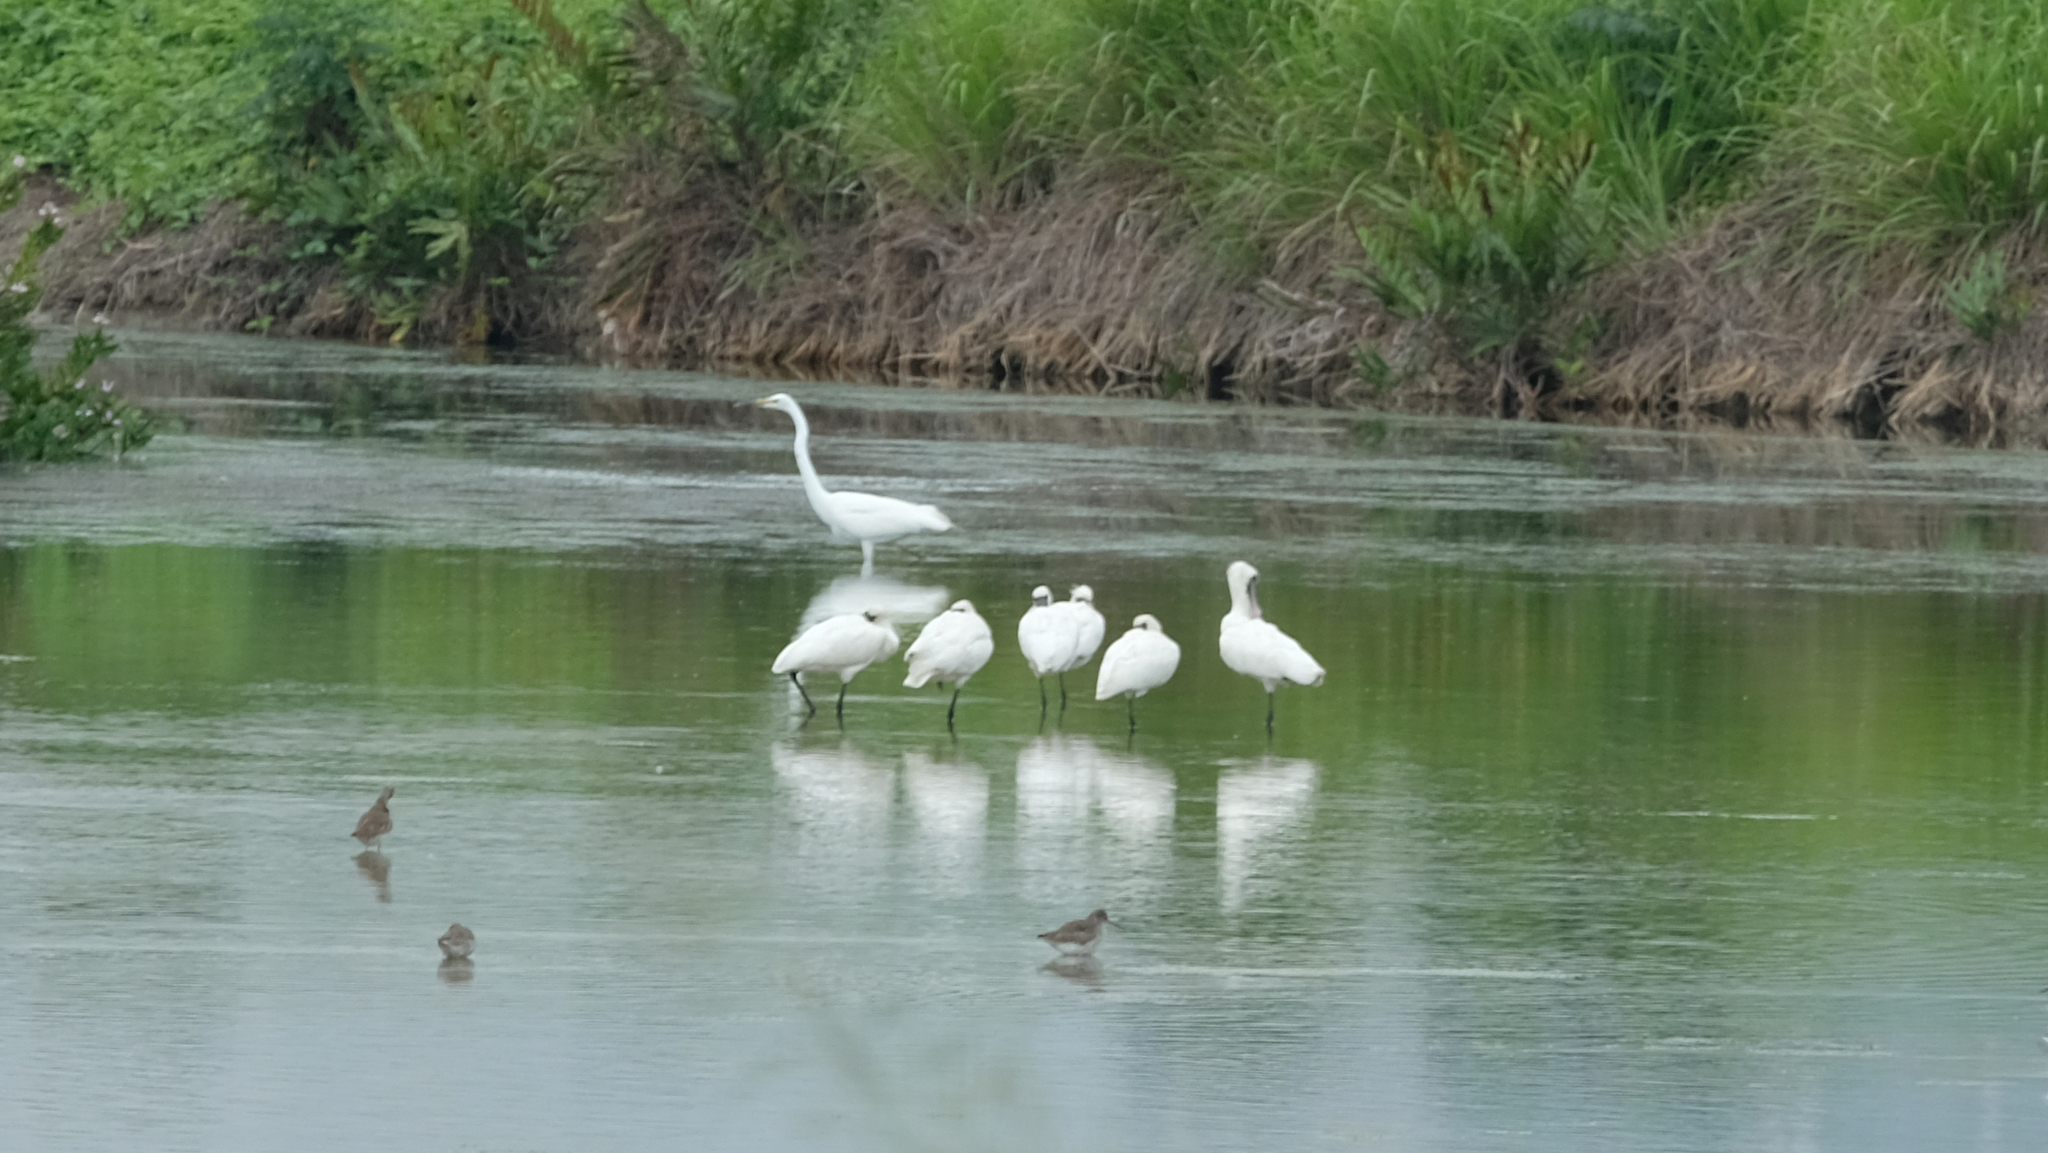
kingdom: Animalia
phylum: Chordata
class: Aves
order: Pelecaniformes
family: Threskiornithidae
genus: Platalea
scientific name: Platalea minor
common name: Black-faced spoonbill
